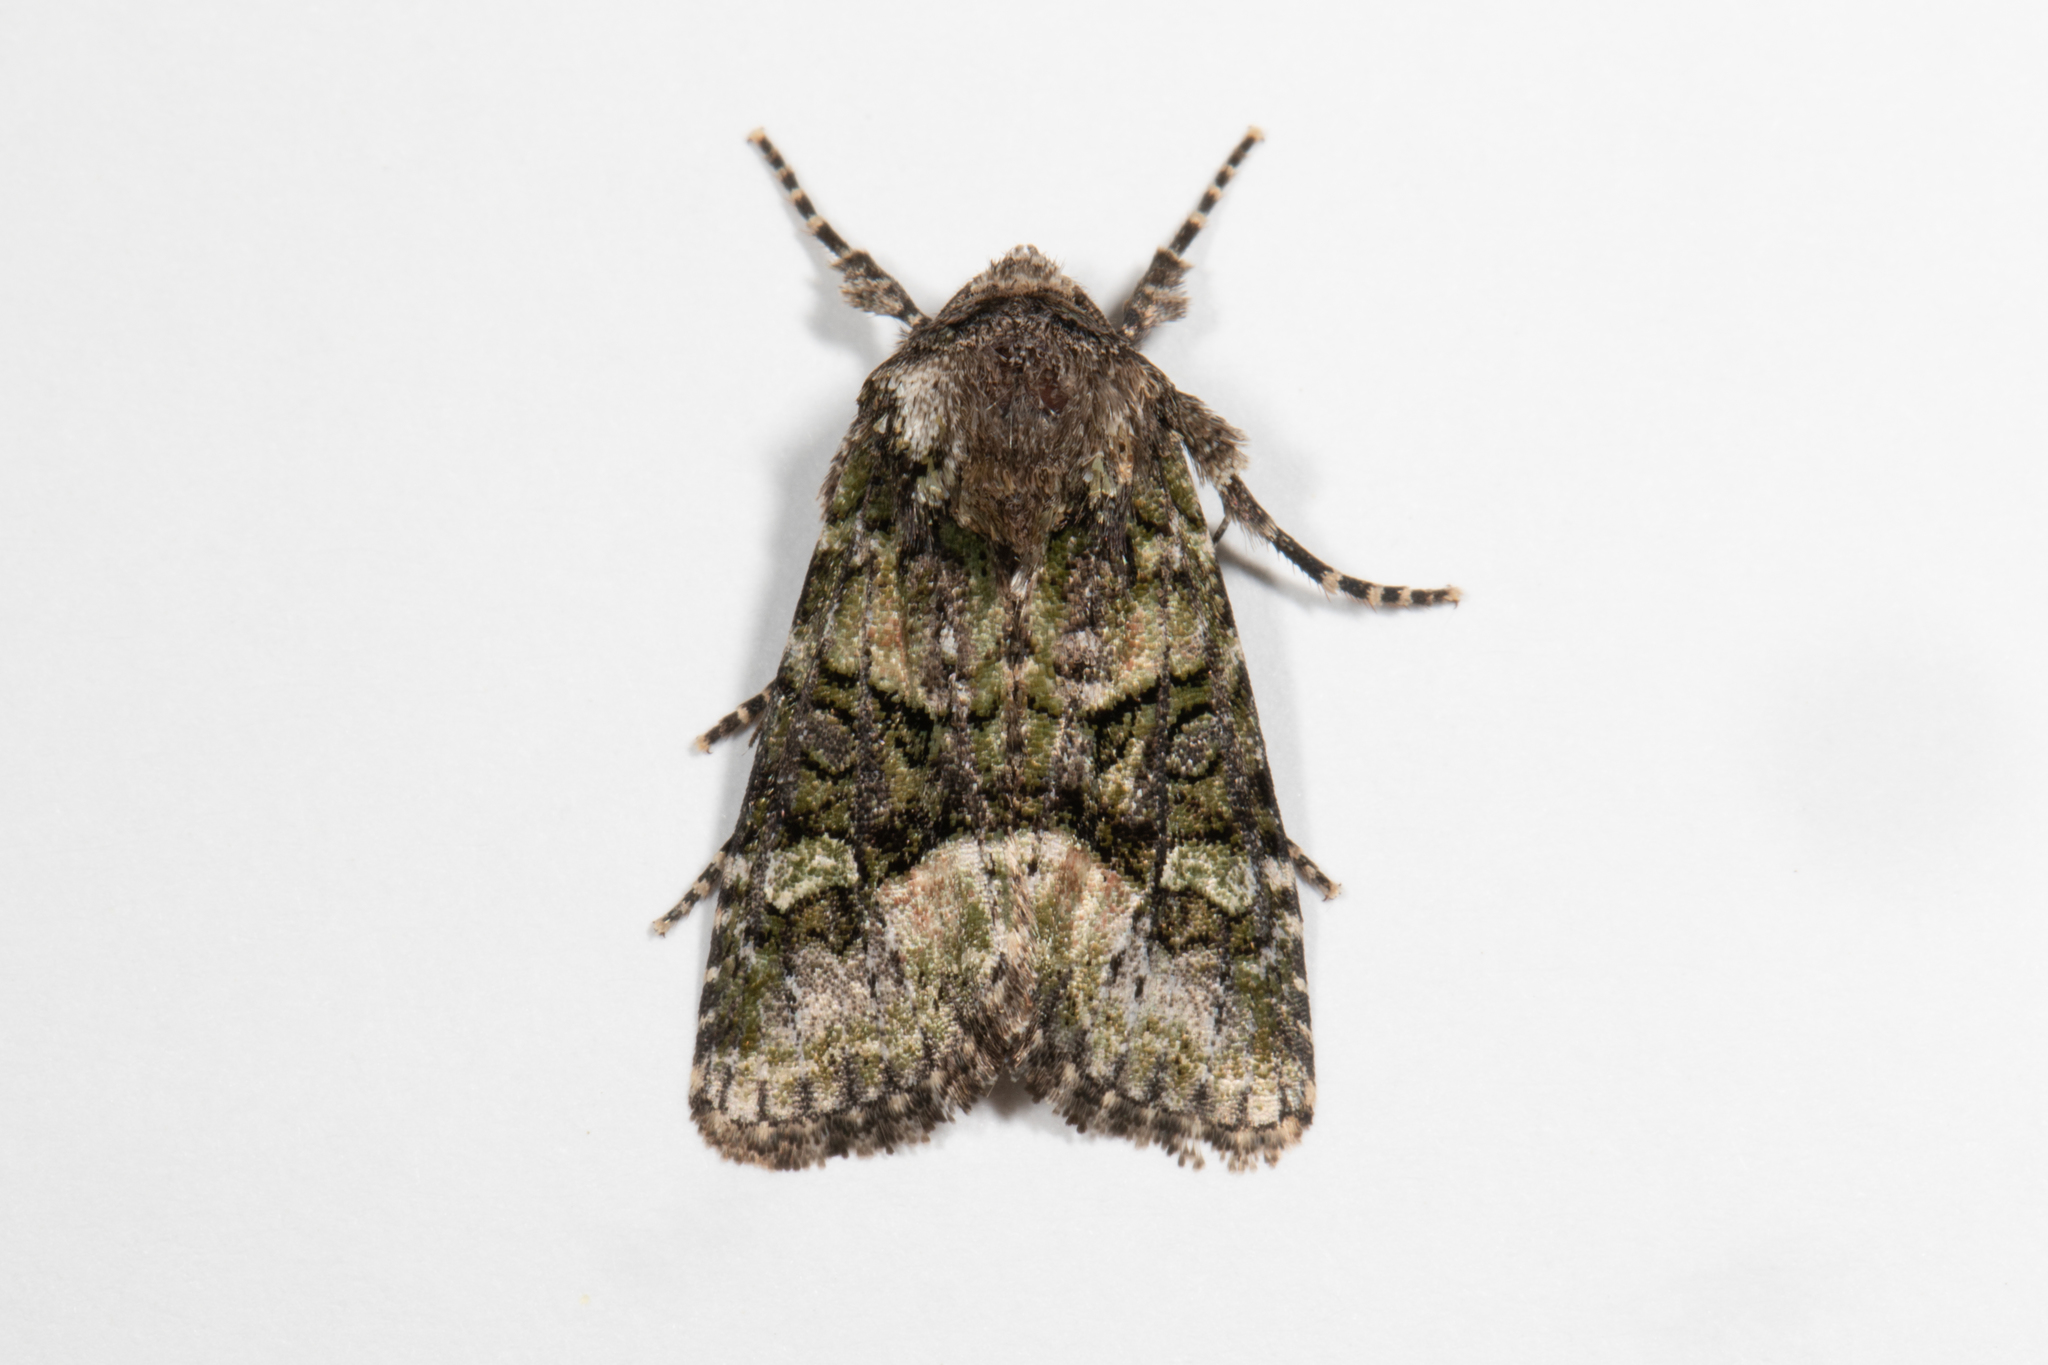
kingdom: Animalia
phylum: Arthropoda
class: Insecta
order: Lepidoptera
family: Noctuidae
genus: Lacinipolia
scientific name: Lacinipolia olivacea
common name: Olive arches moth
